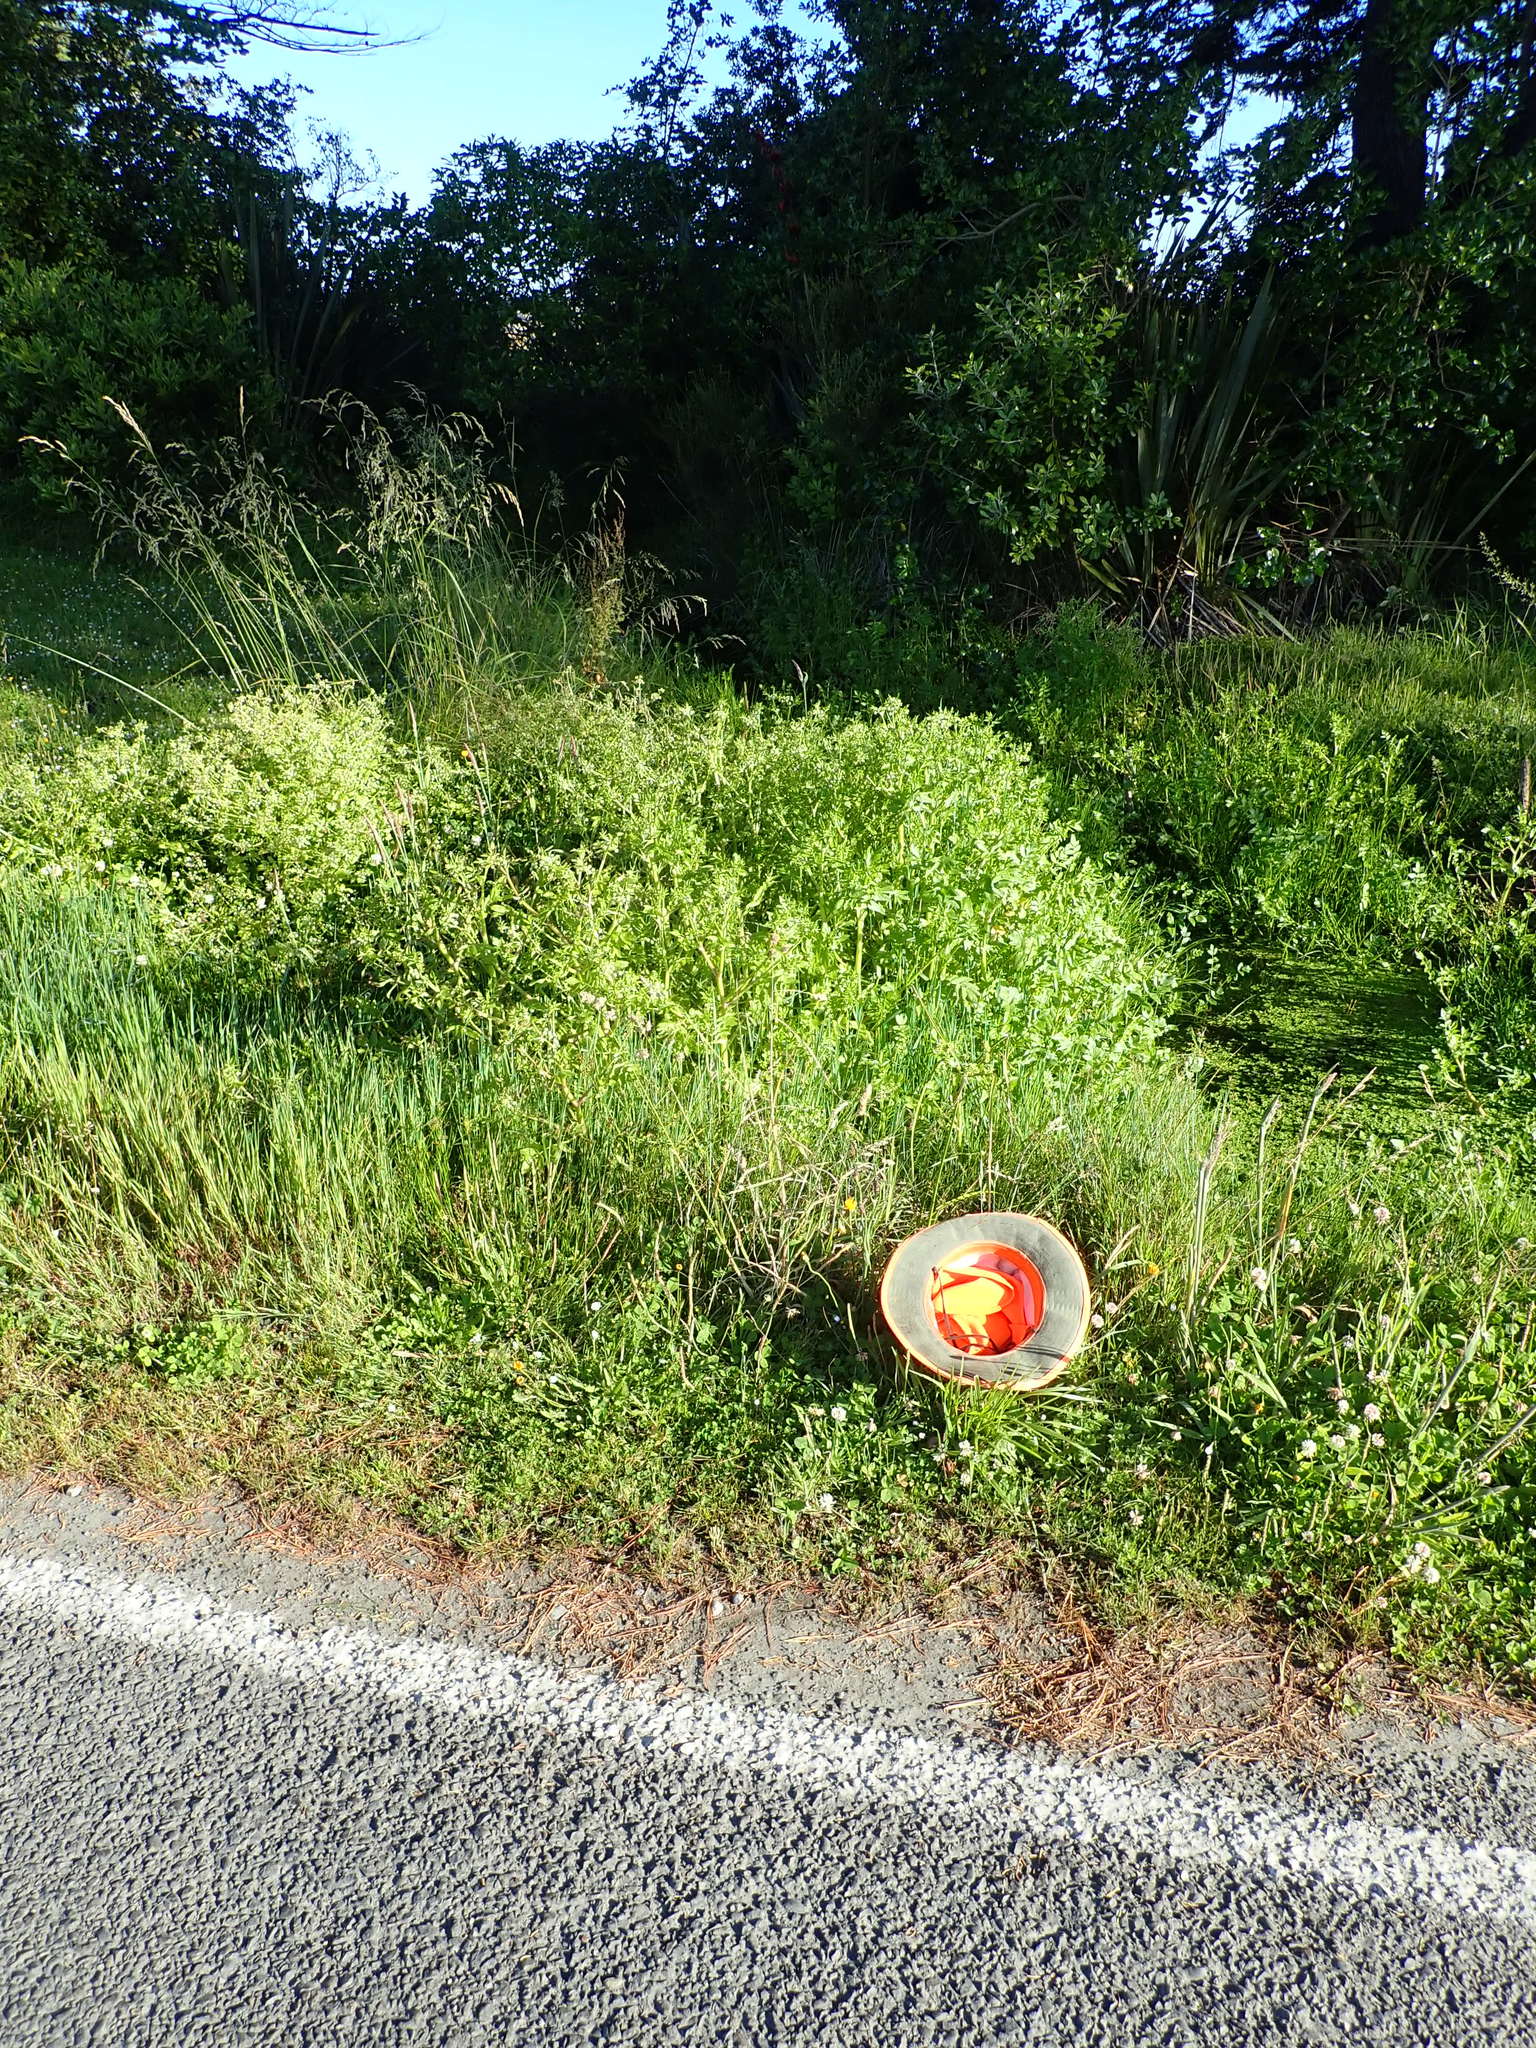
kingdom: Plantae
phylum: Tracheophyta
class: Liliopsida
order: Poales
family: Cyperaceae
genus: Cyperus
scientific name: Cyperus eragrostis
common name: Tall flatsedge
